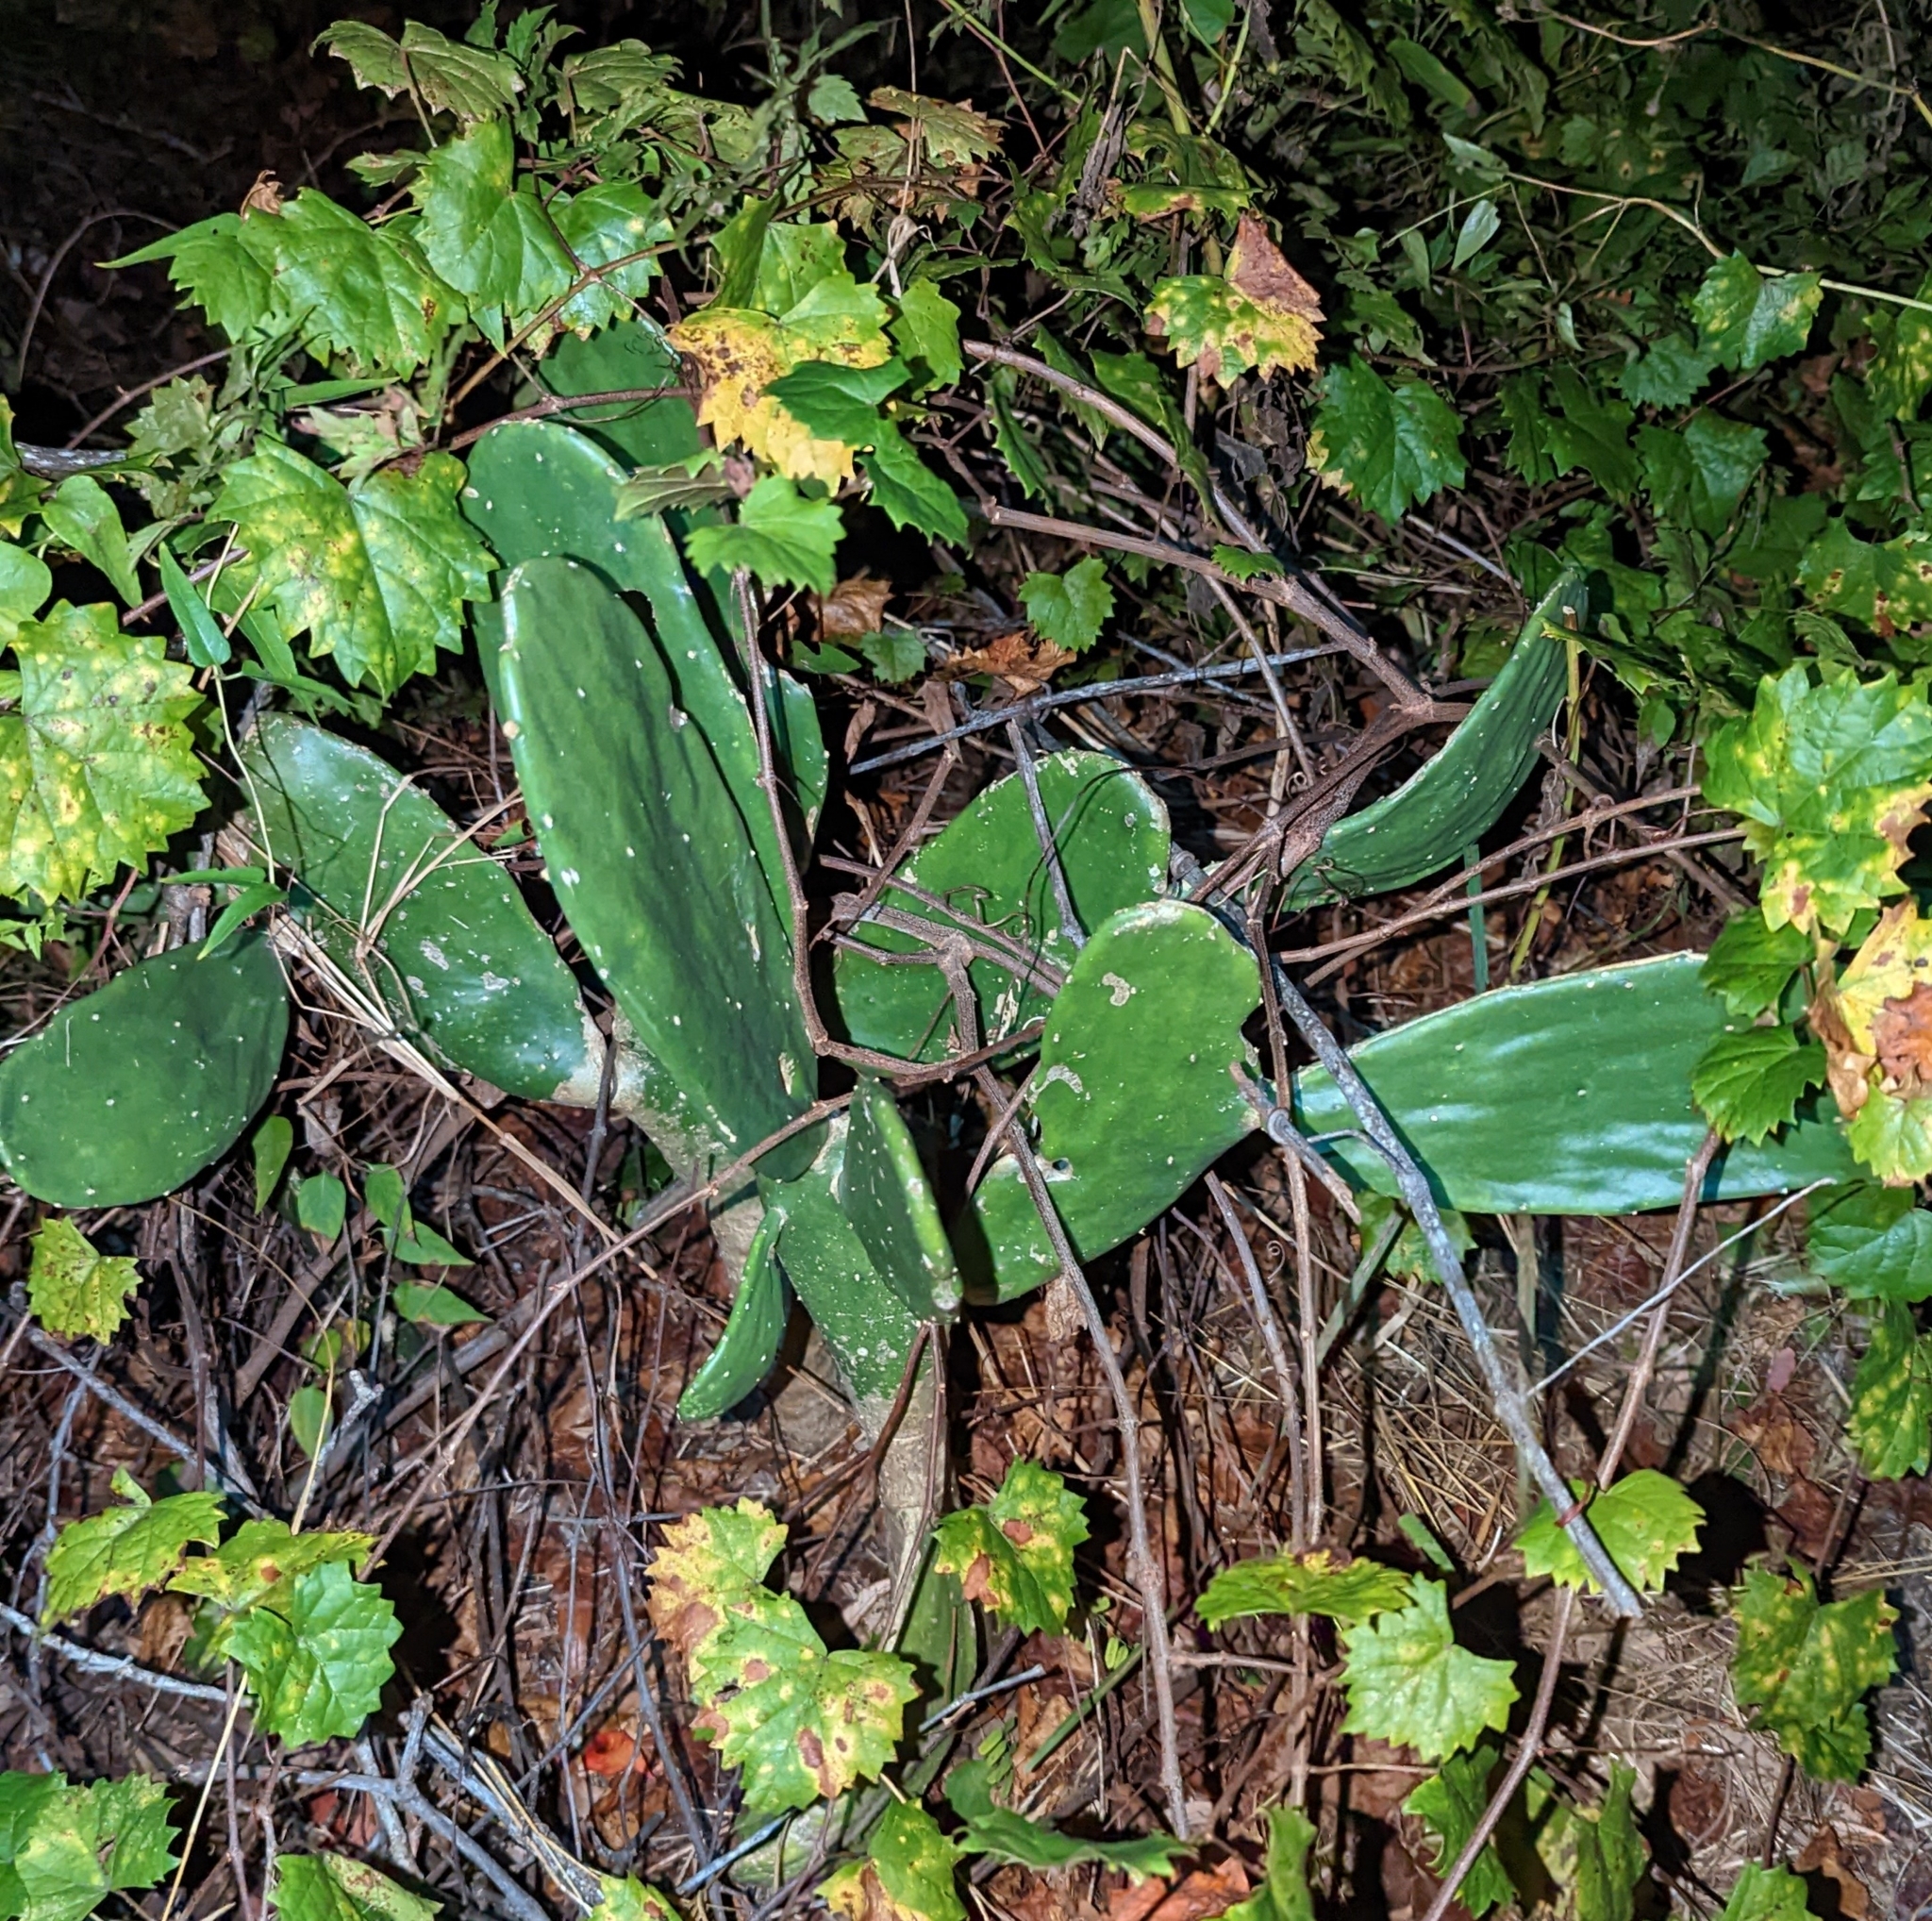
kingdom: Plantae
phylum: Tracheophyta
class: Magnoliopsida
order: Caryophyllales
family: Cactaceae
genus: Opuntia
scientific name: Opuntia cochenillifera
